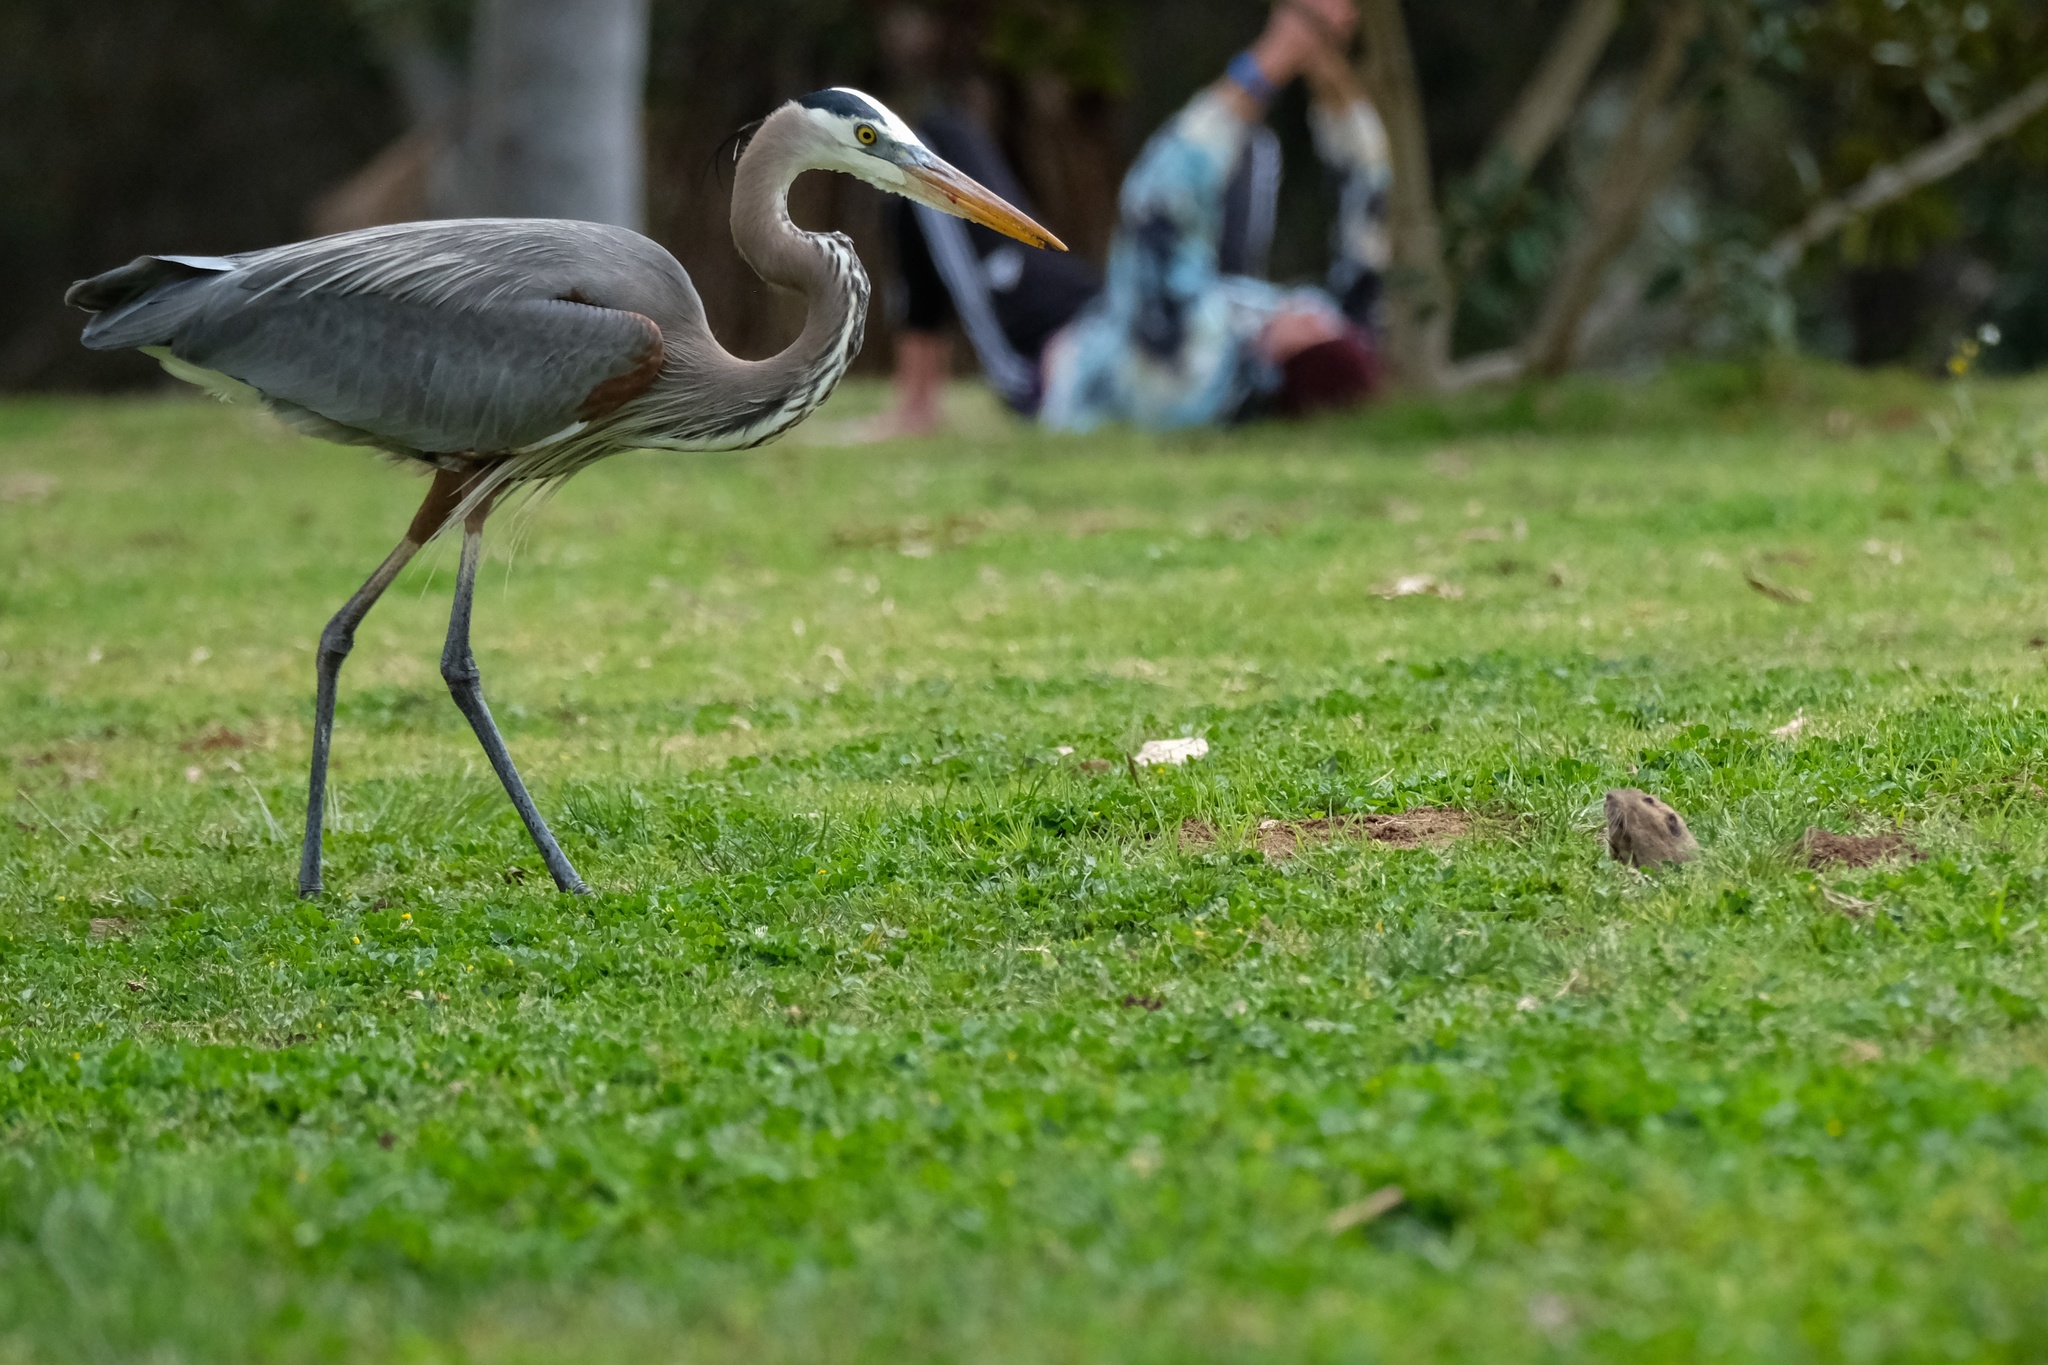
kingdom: Animalia
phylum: Chordata
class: Mammalia
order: Rodentia
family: Geomyidae
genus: Thomomys
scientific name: Thomomys bottae
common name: Botta's pocket gopher
